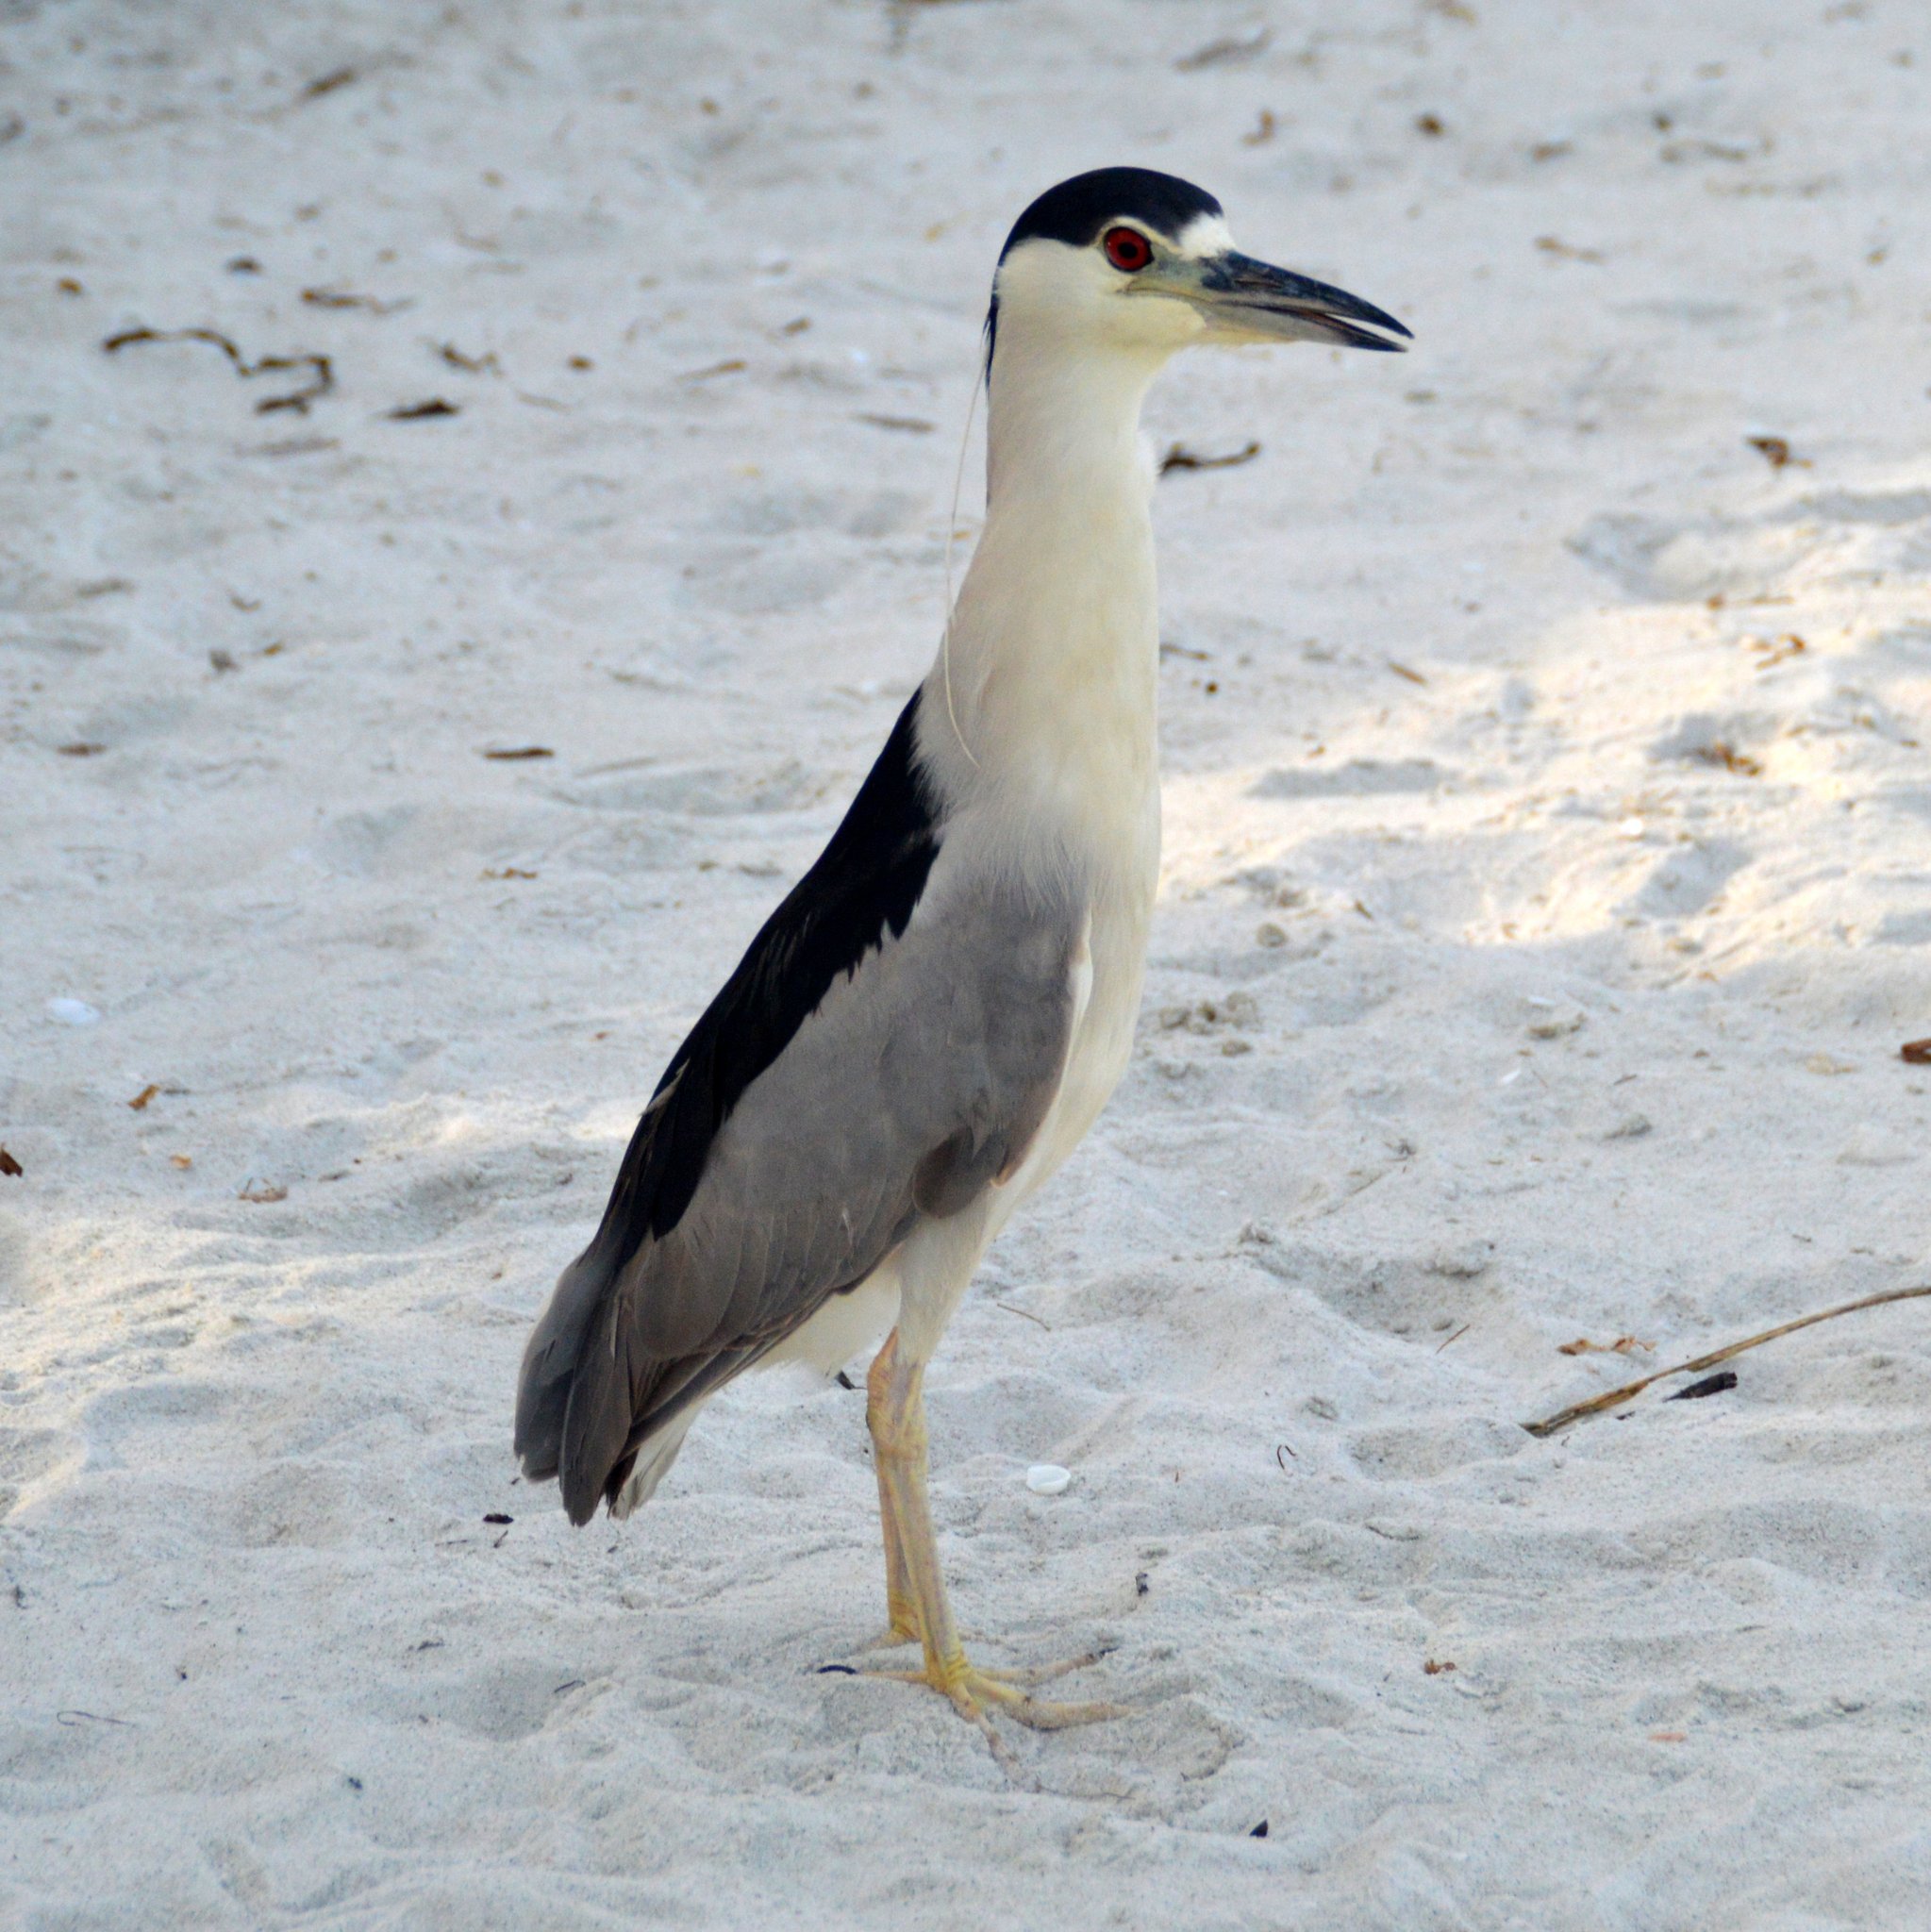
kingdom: Animalia
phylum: Chordata
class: Aves
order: Pelecaniformes
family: Ardeidae
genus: Nycticorax
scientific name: Nycticorax nycticorax
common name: Black-crowned night heron
